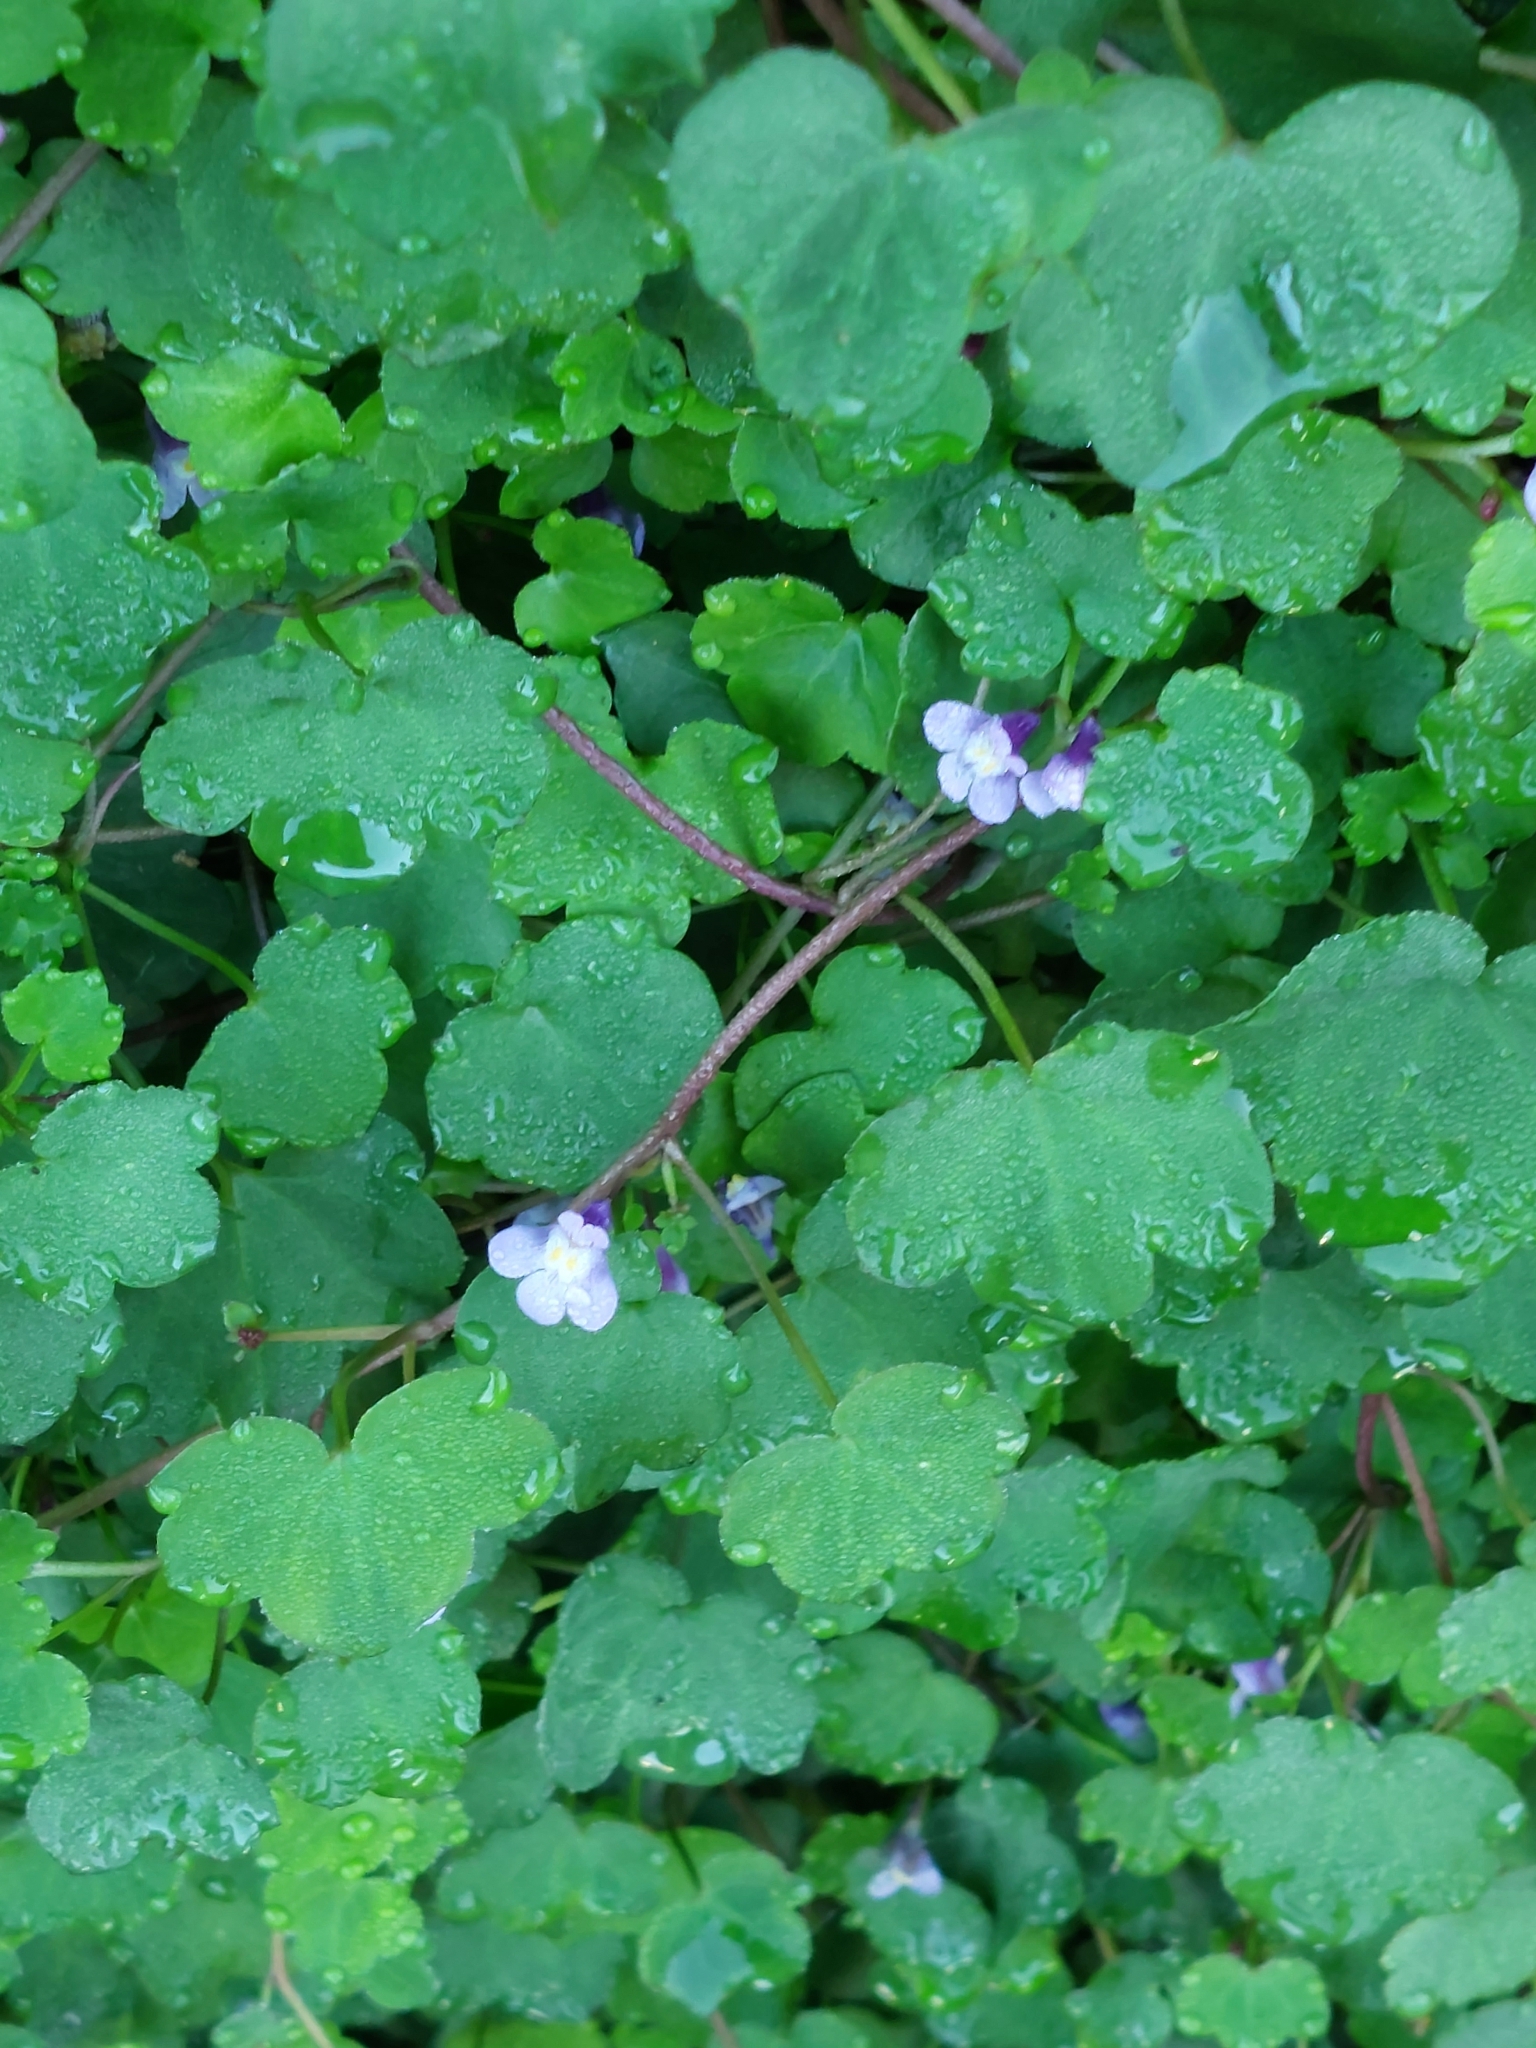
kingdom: Plantae
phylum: Tracheophyta
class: Magnoliopsida
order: Lamiales
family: Plantaginaceae
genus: Cymbalaria
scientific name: Cymbalaria muralis
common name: Ivy-leaved toadflax
